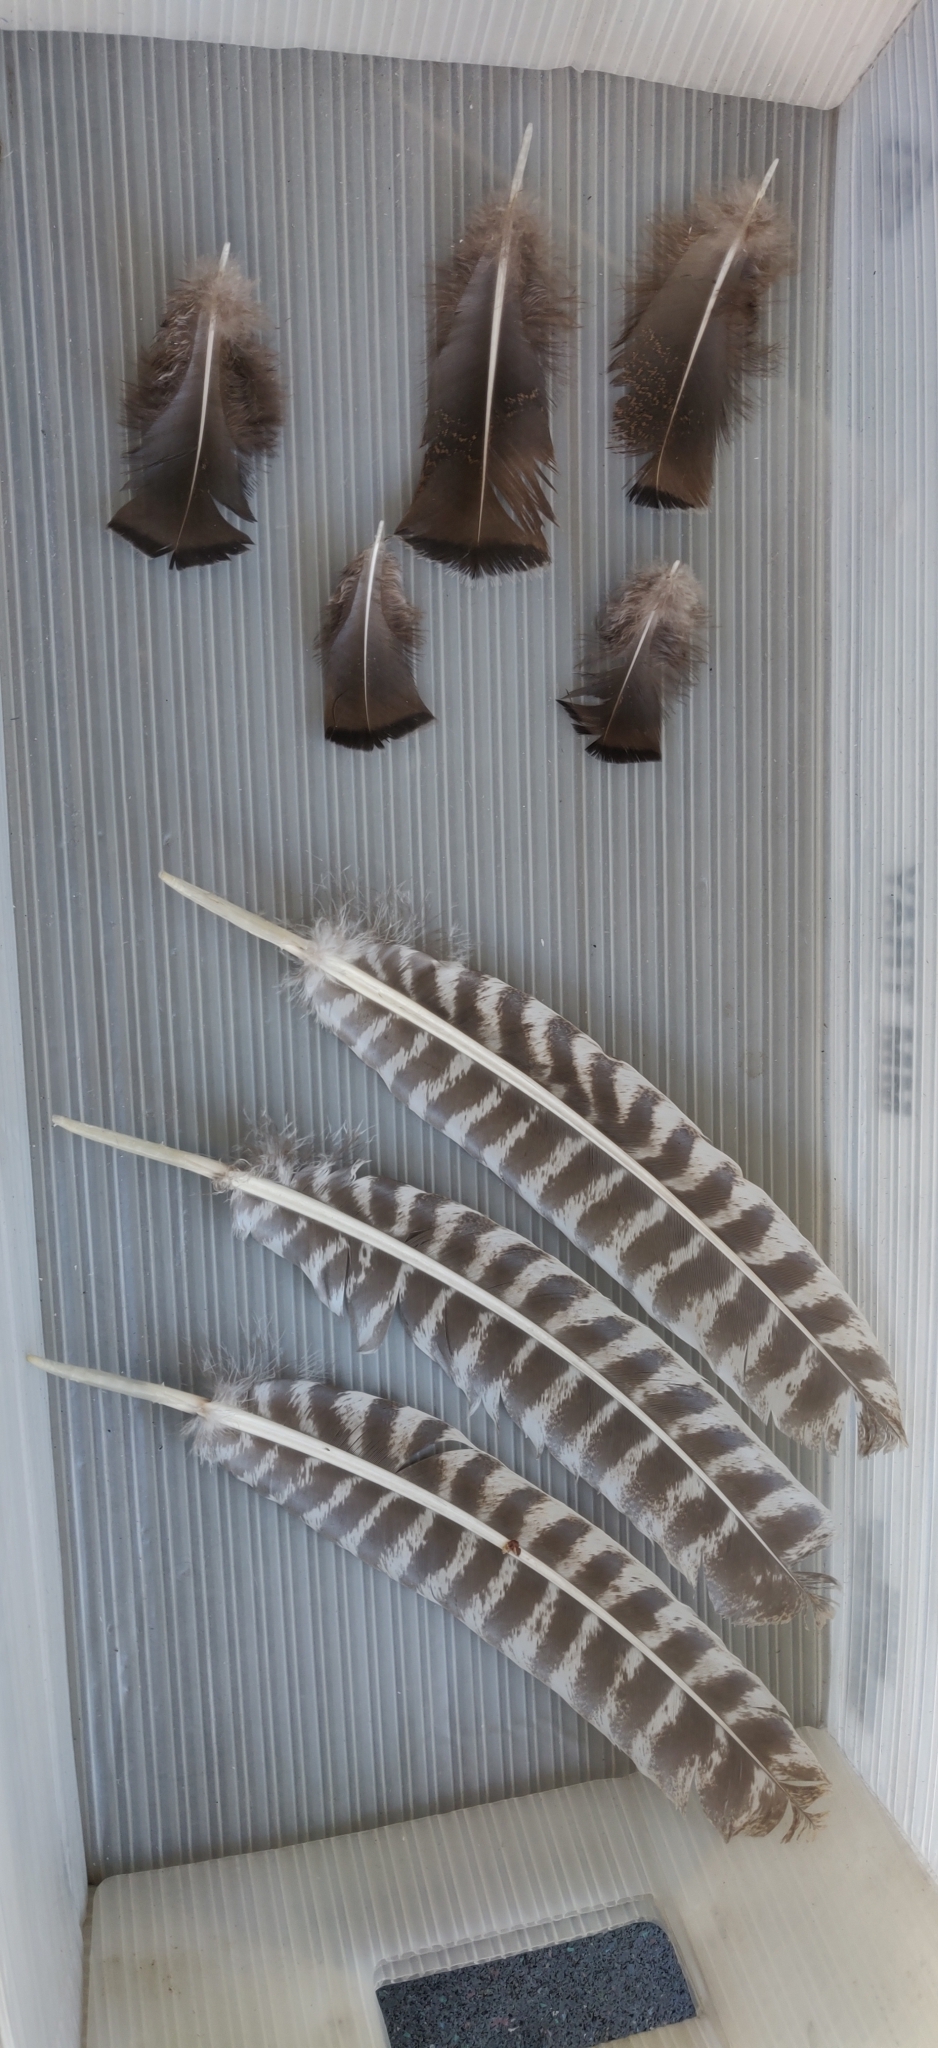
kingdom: Animalia
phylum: Chordata
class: Aves
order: Galliformes
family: Phasianidae
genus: Meleagris
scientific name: Meleagris gallopavo
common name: Wild turkey
